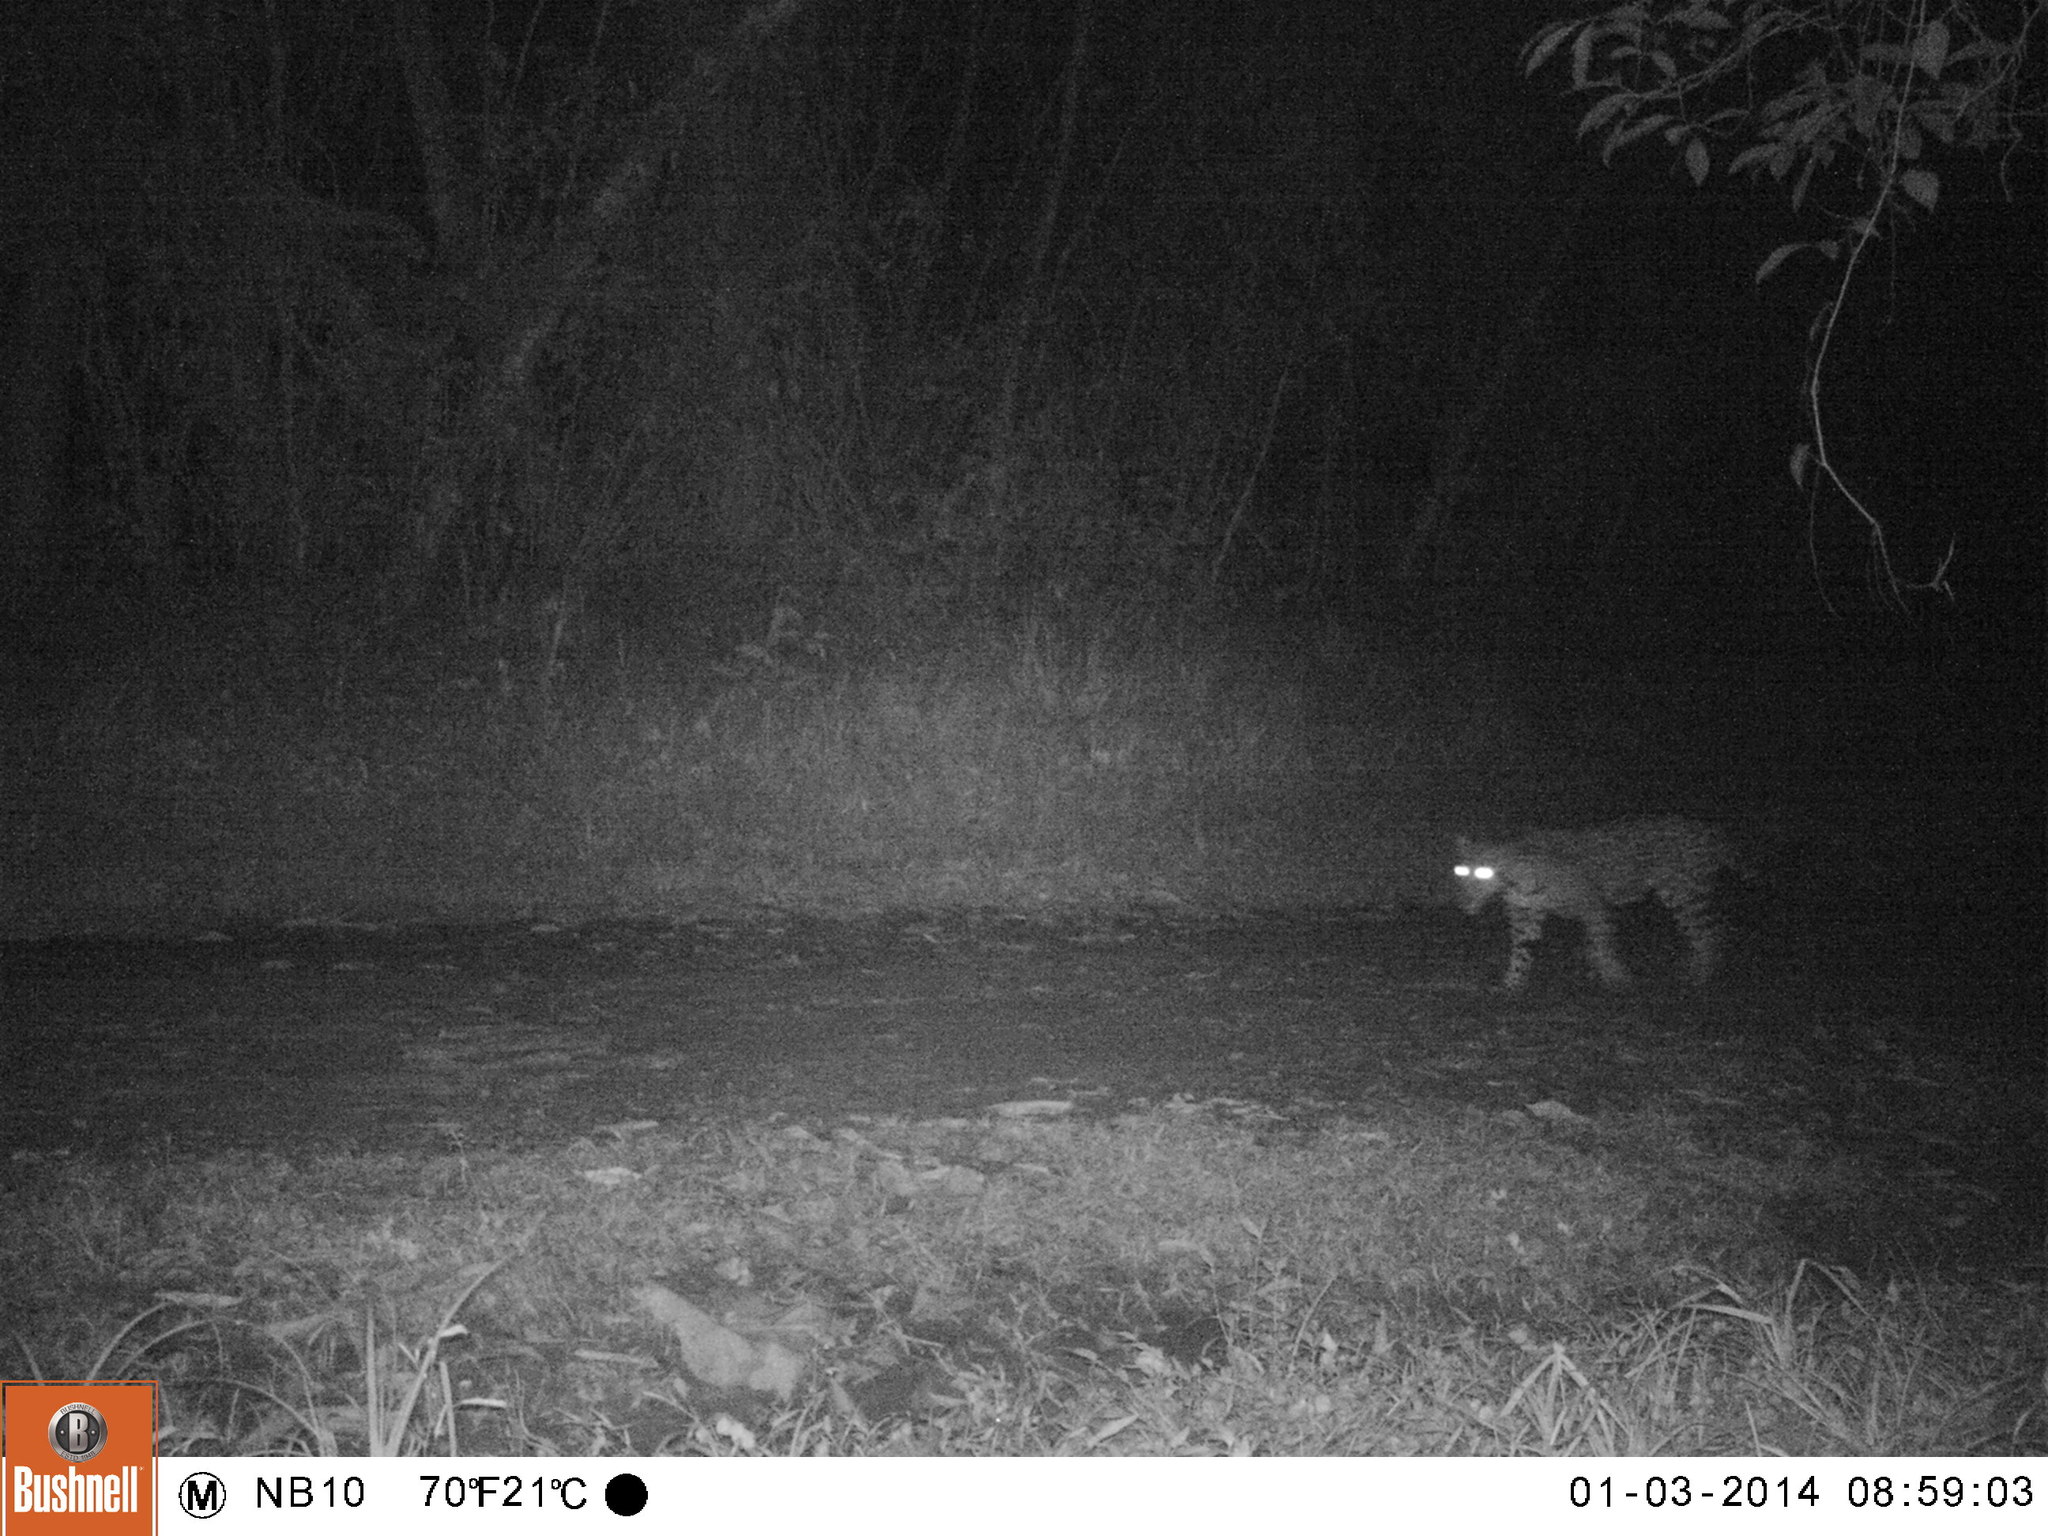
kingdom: Animalia
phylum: Chordata
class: Mammalia
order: Carnivora
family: Felidae
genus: Panthera
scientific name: Panthera onca
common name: Jaguar
